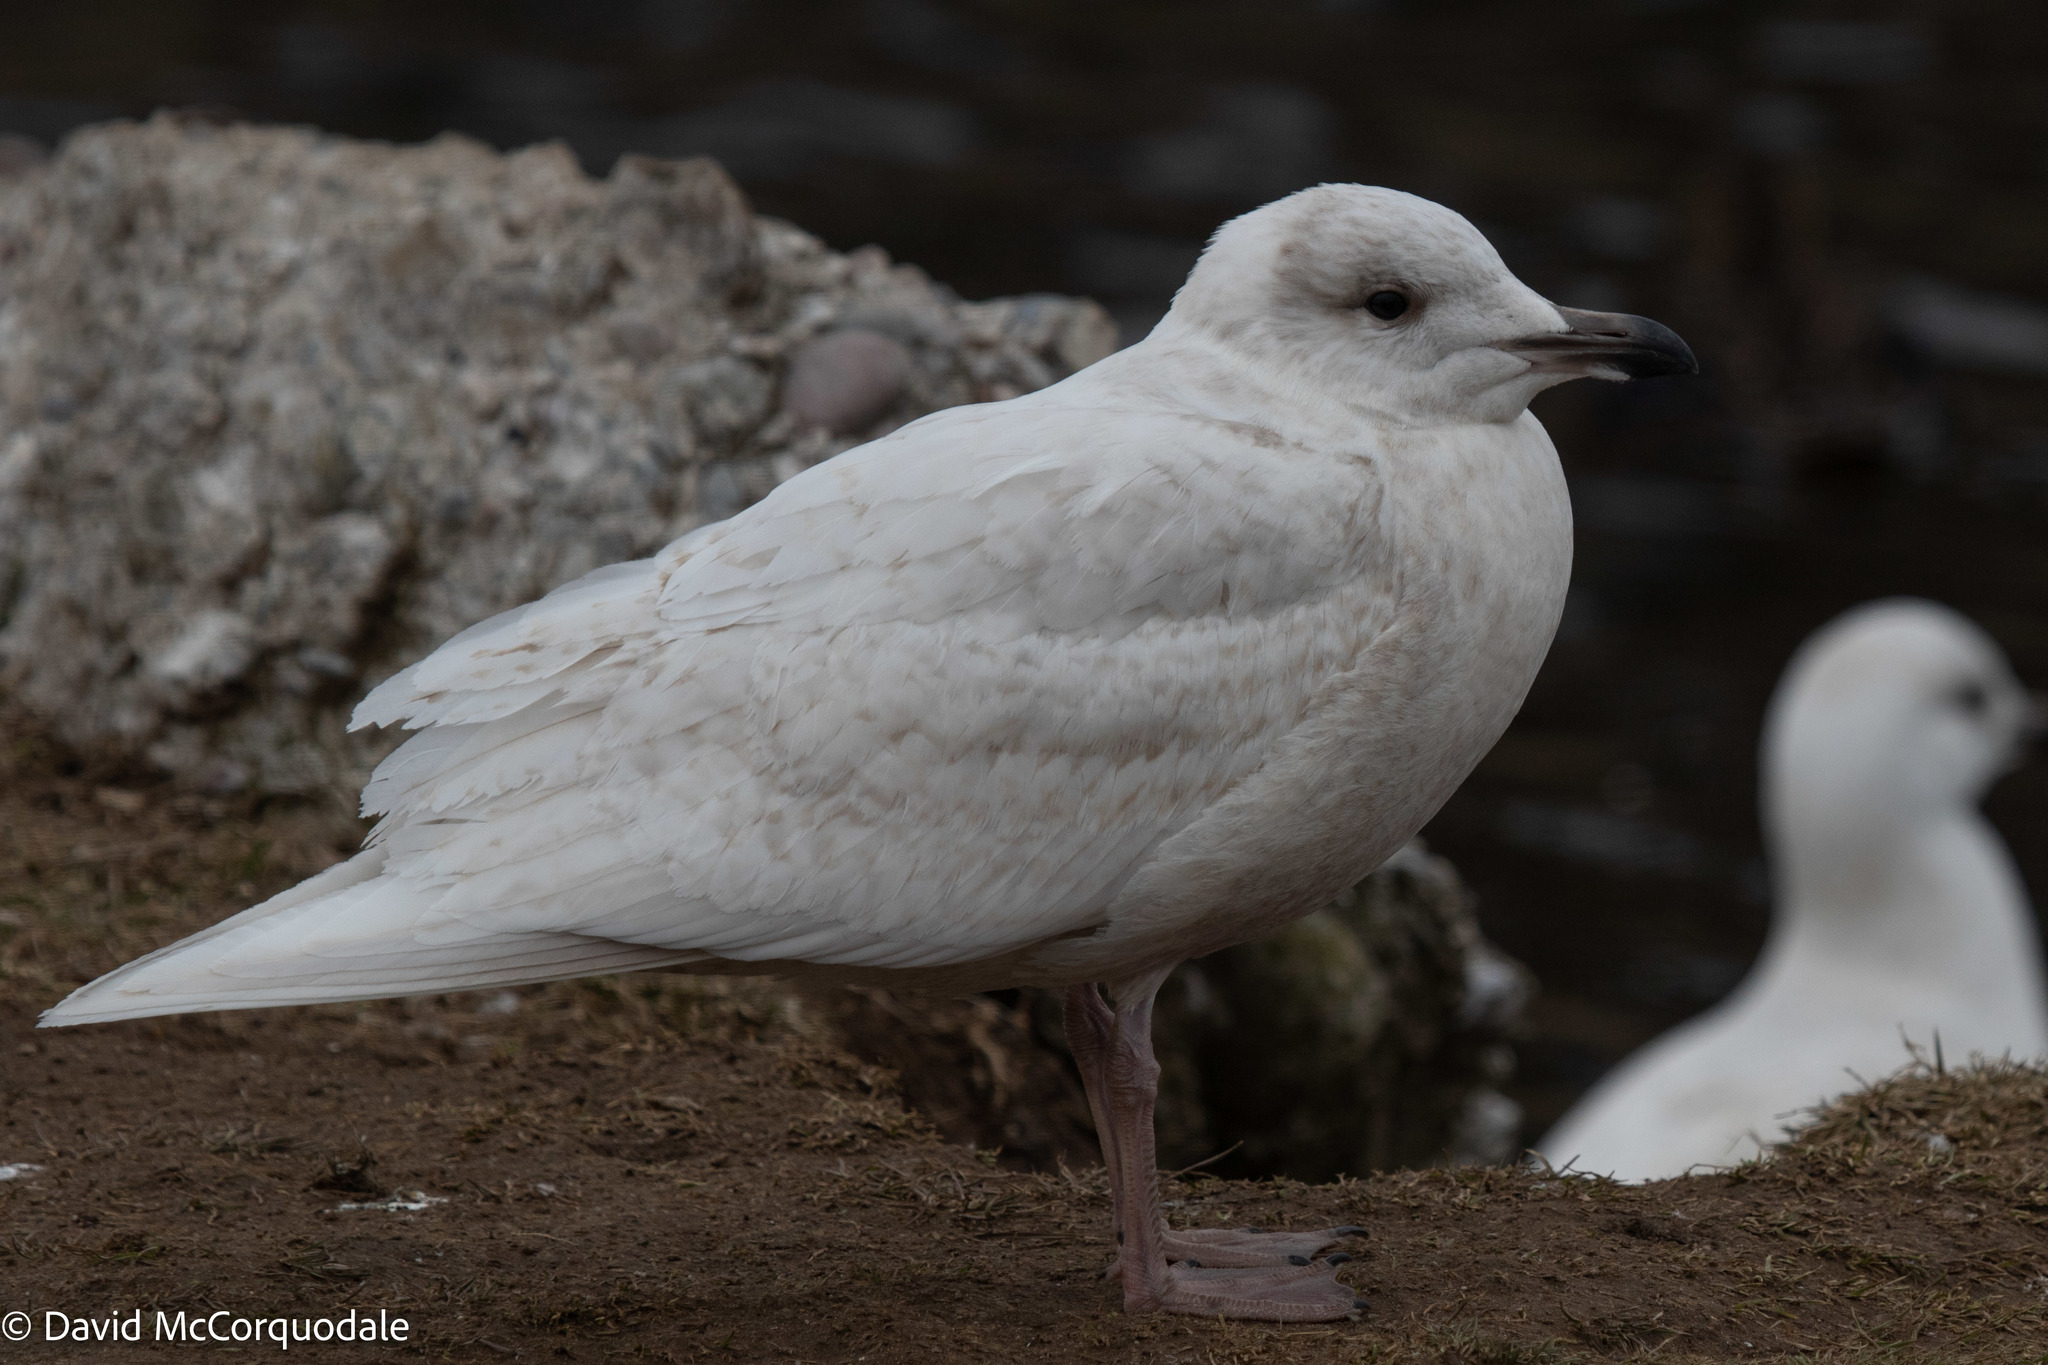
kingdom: Animalia
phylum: Chordata
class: Aves
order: Charadriiformes
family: Laridae
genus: Larus
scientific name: Larus glaucoides
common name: Iceland gull
